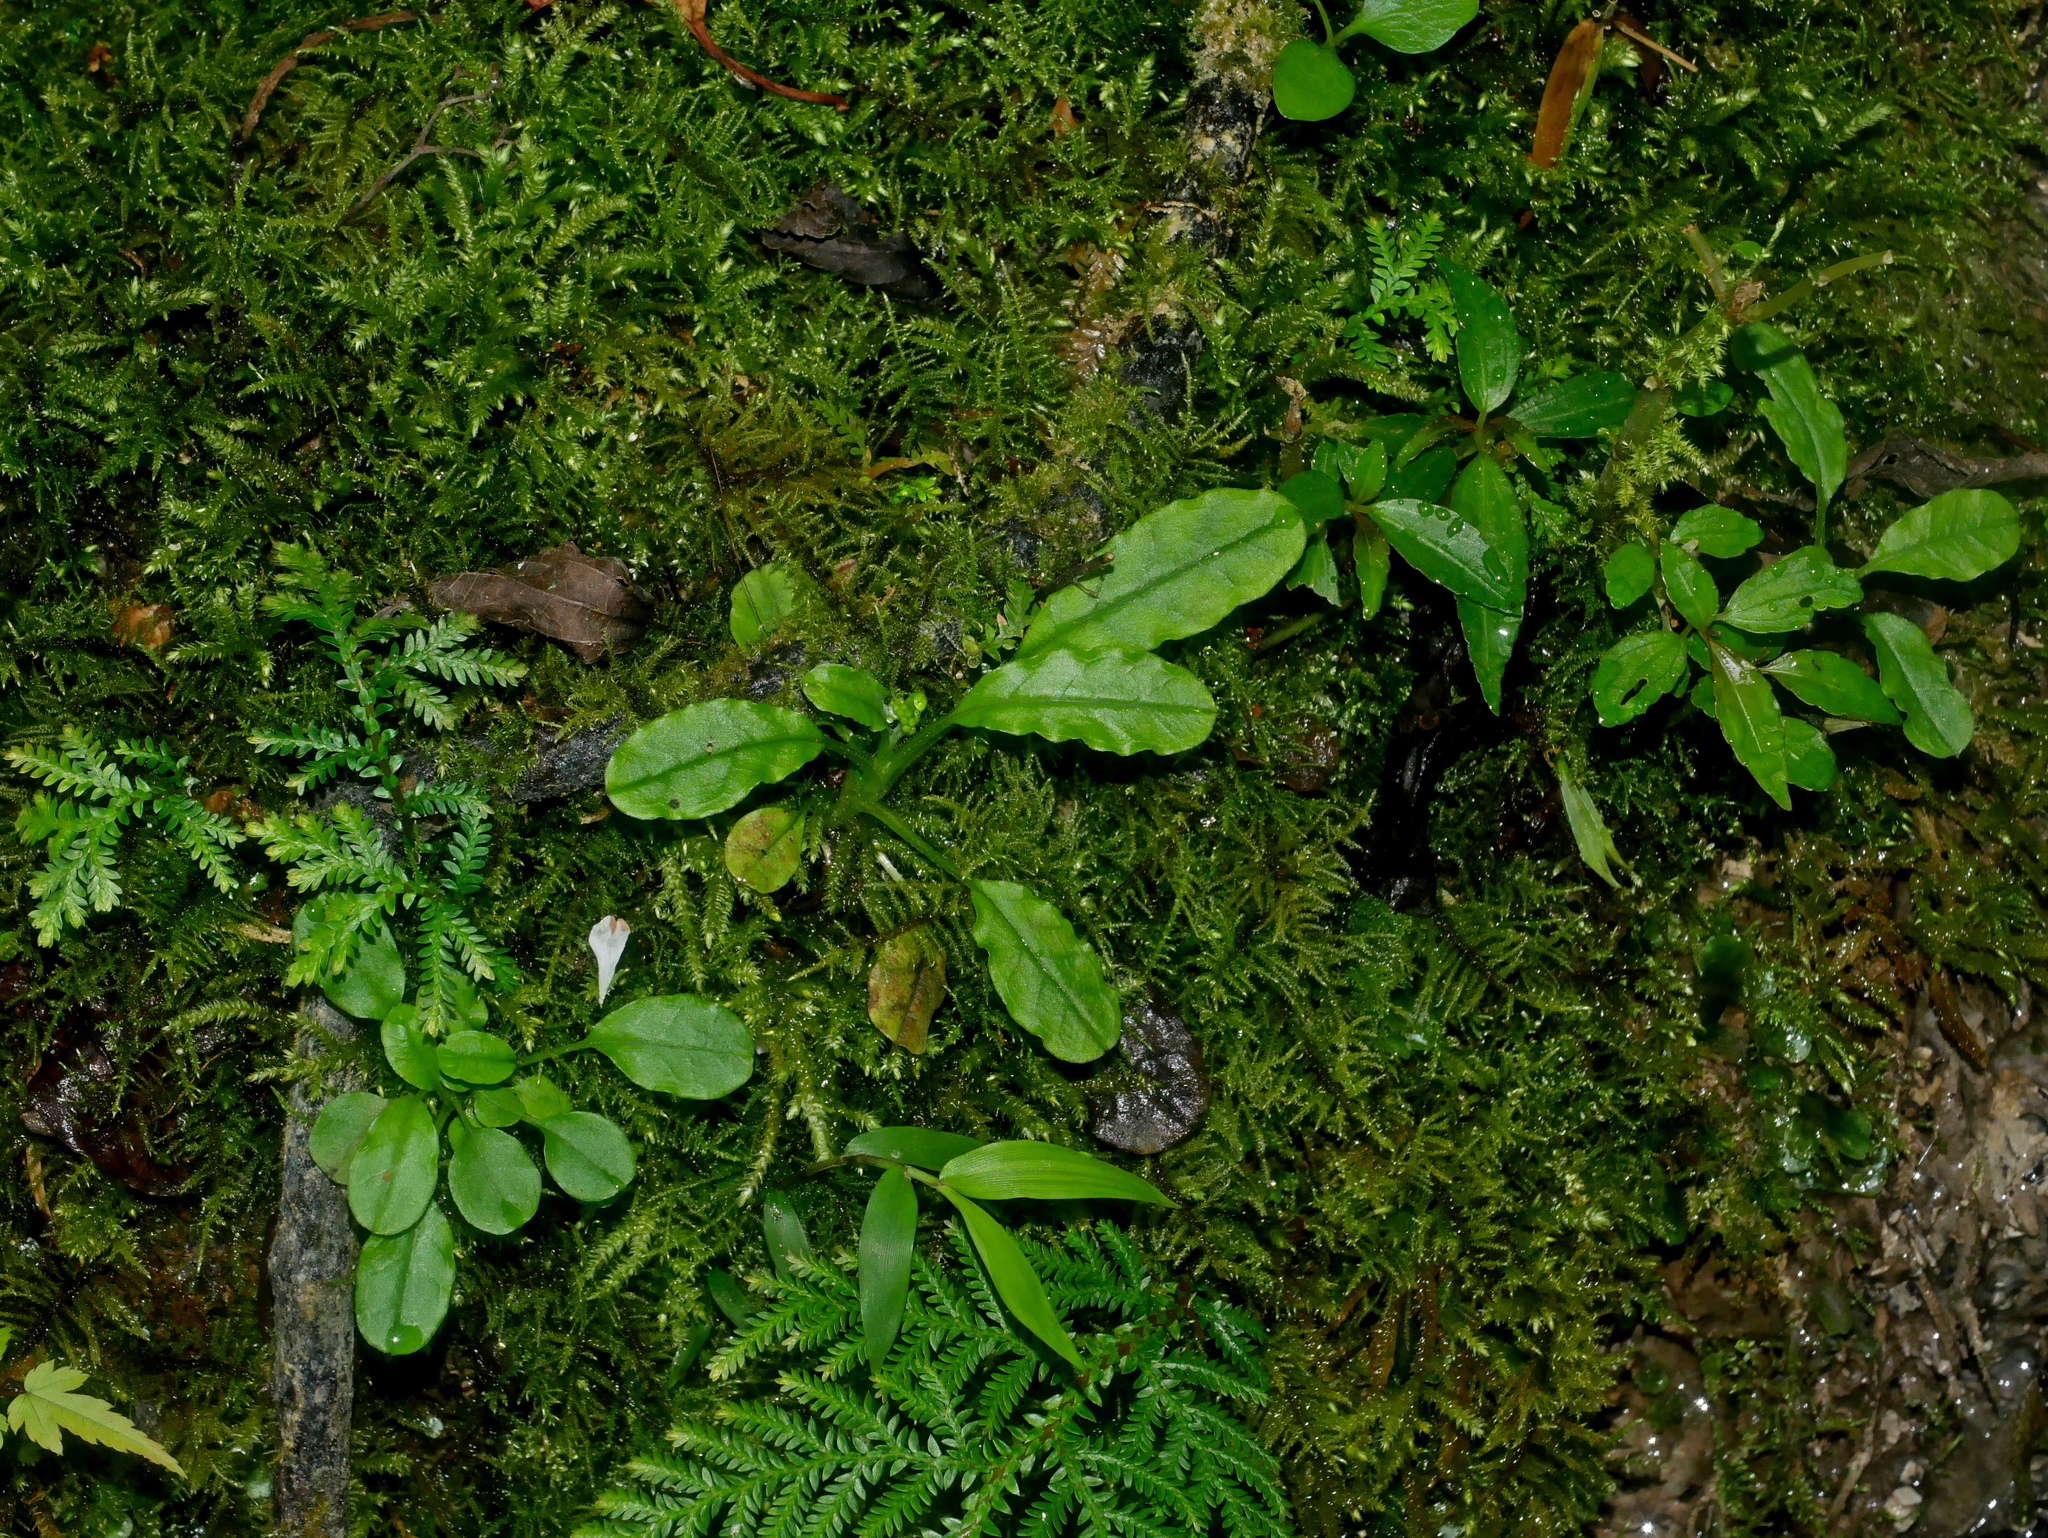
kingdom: Plantae
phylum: Tracheophyta
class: Magnoliopsida
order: Boraginales
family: Boraginaceae
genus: Trigonotis
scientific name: Trigonotis formosana
